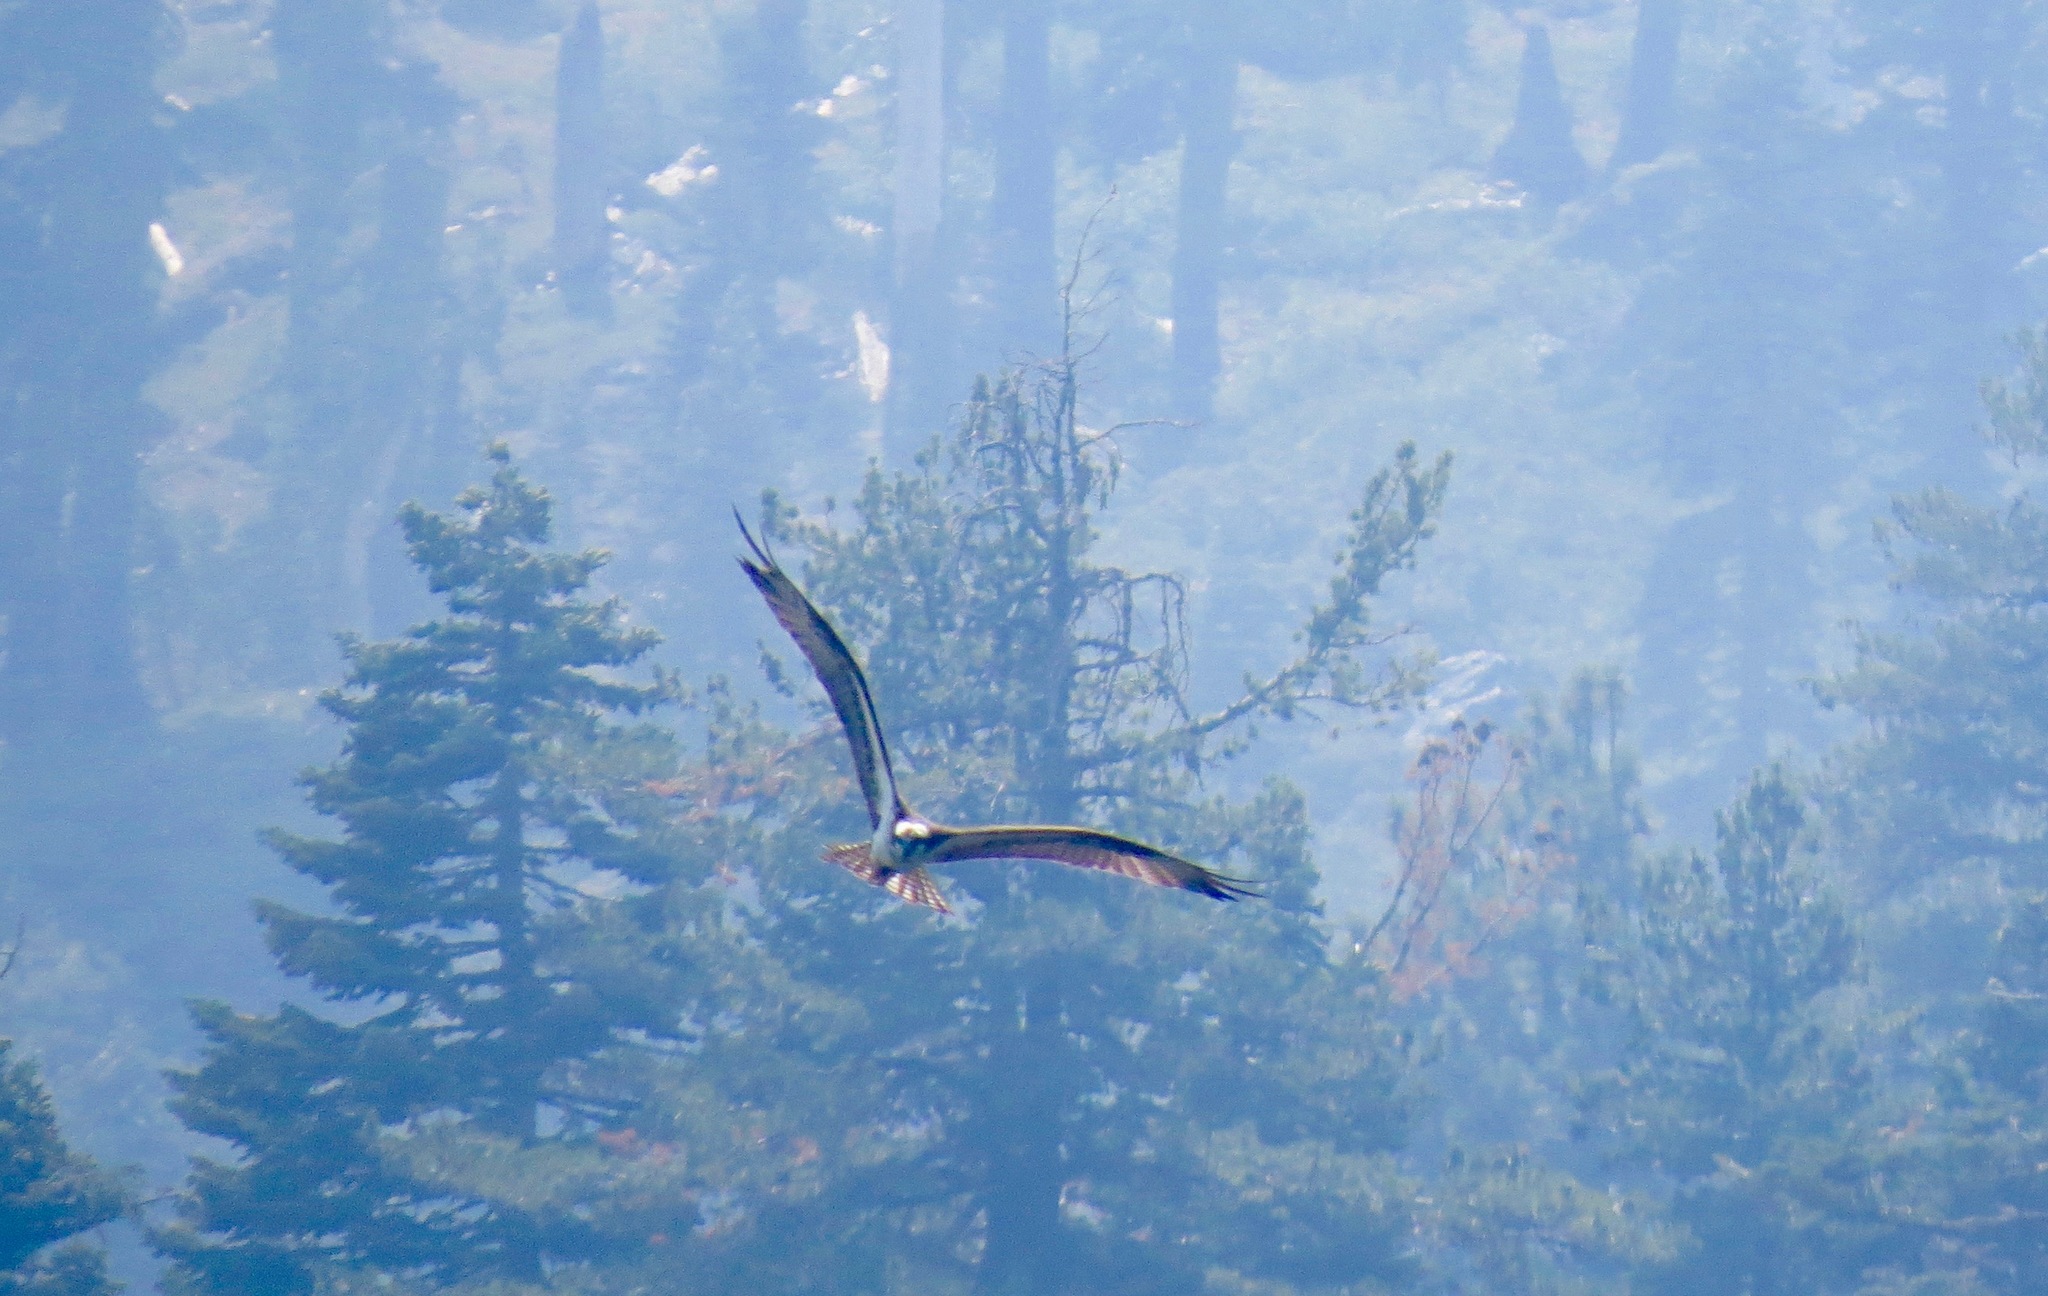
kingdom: Animalia
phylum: Chordata
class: Aves
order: Accipitriformes
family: Pandionidae
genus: Pandion
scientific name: Pandion haliaetus
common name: Osprey
